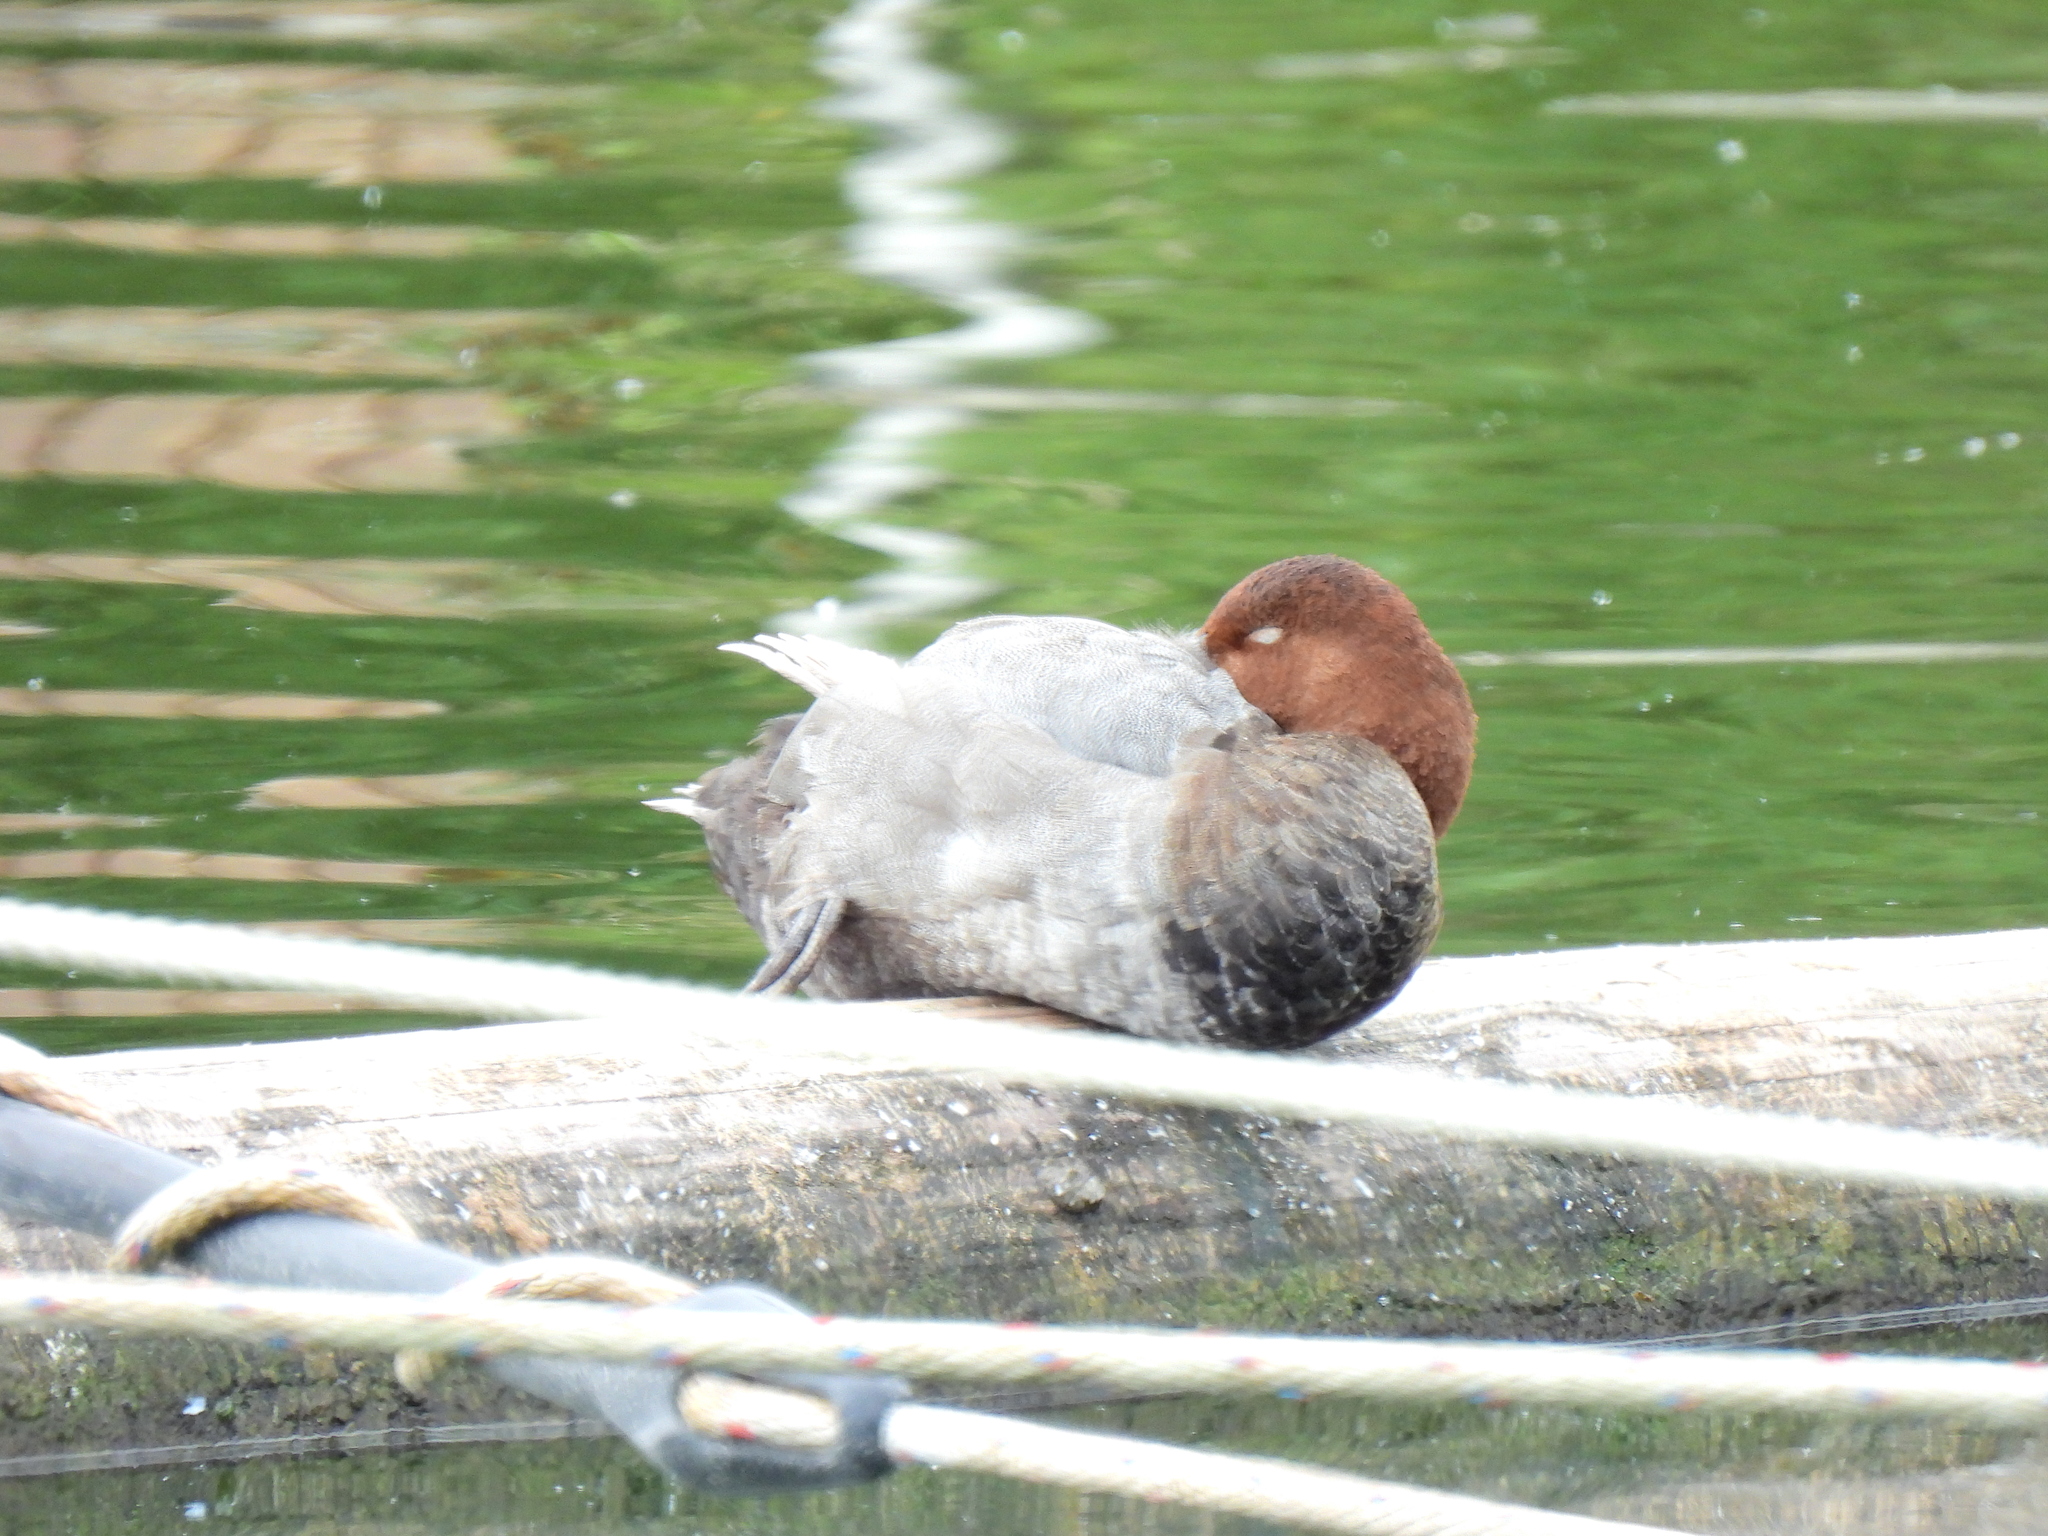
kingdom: Animalia
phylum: Chordata
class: Aves
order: Anseriformes
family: Anatidae
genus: Aythya
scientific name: Aythya ferina
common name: Common pochard
